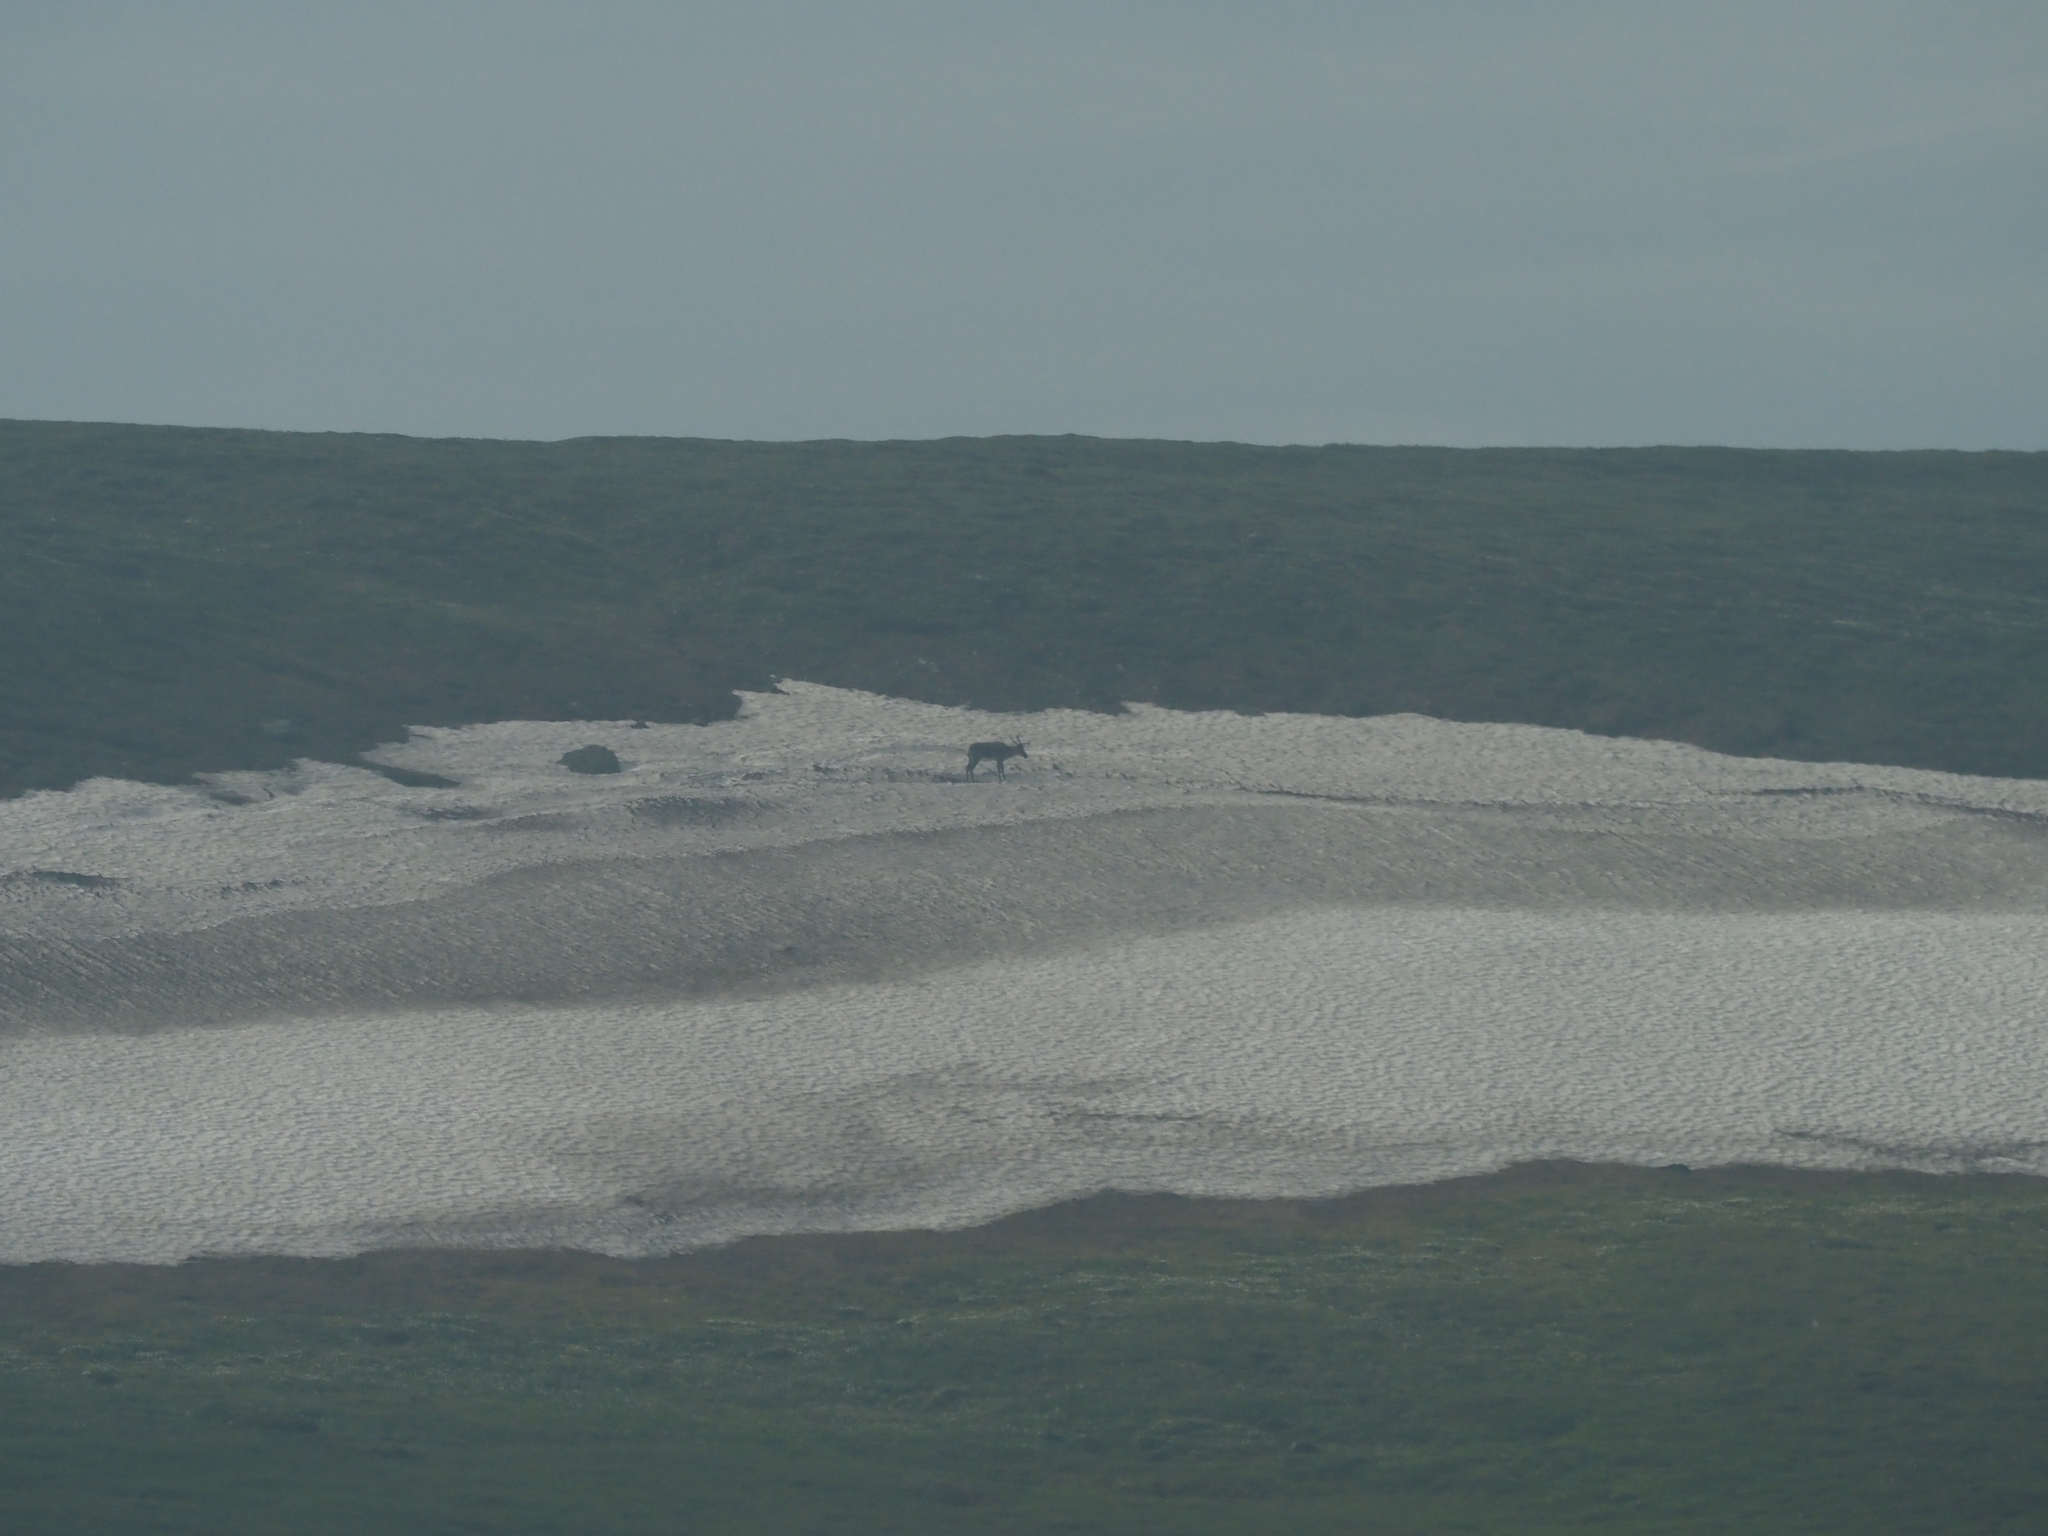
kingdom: Animalia
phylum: Chordata
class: Mammalia
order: Artiodactyla
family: Cervidae
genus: Rangifer
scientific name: Rangifer tarandus
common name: Reindeer
